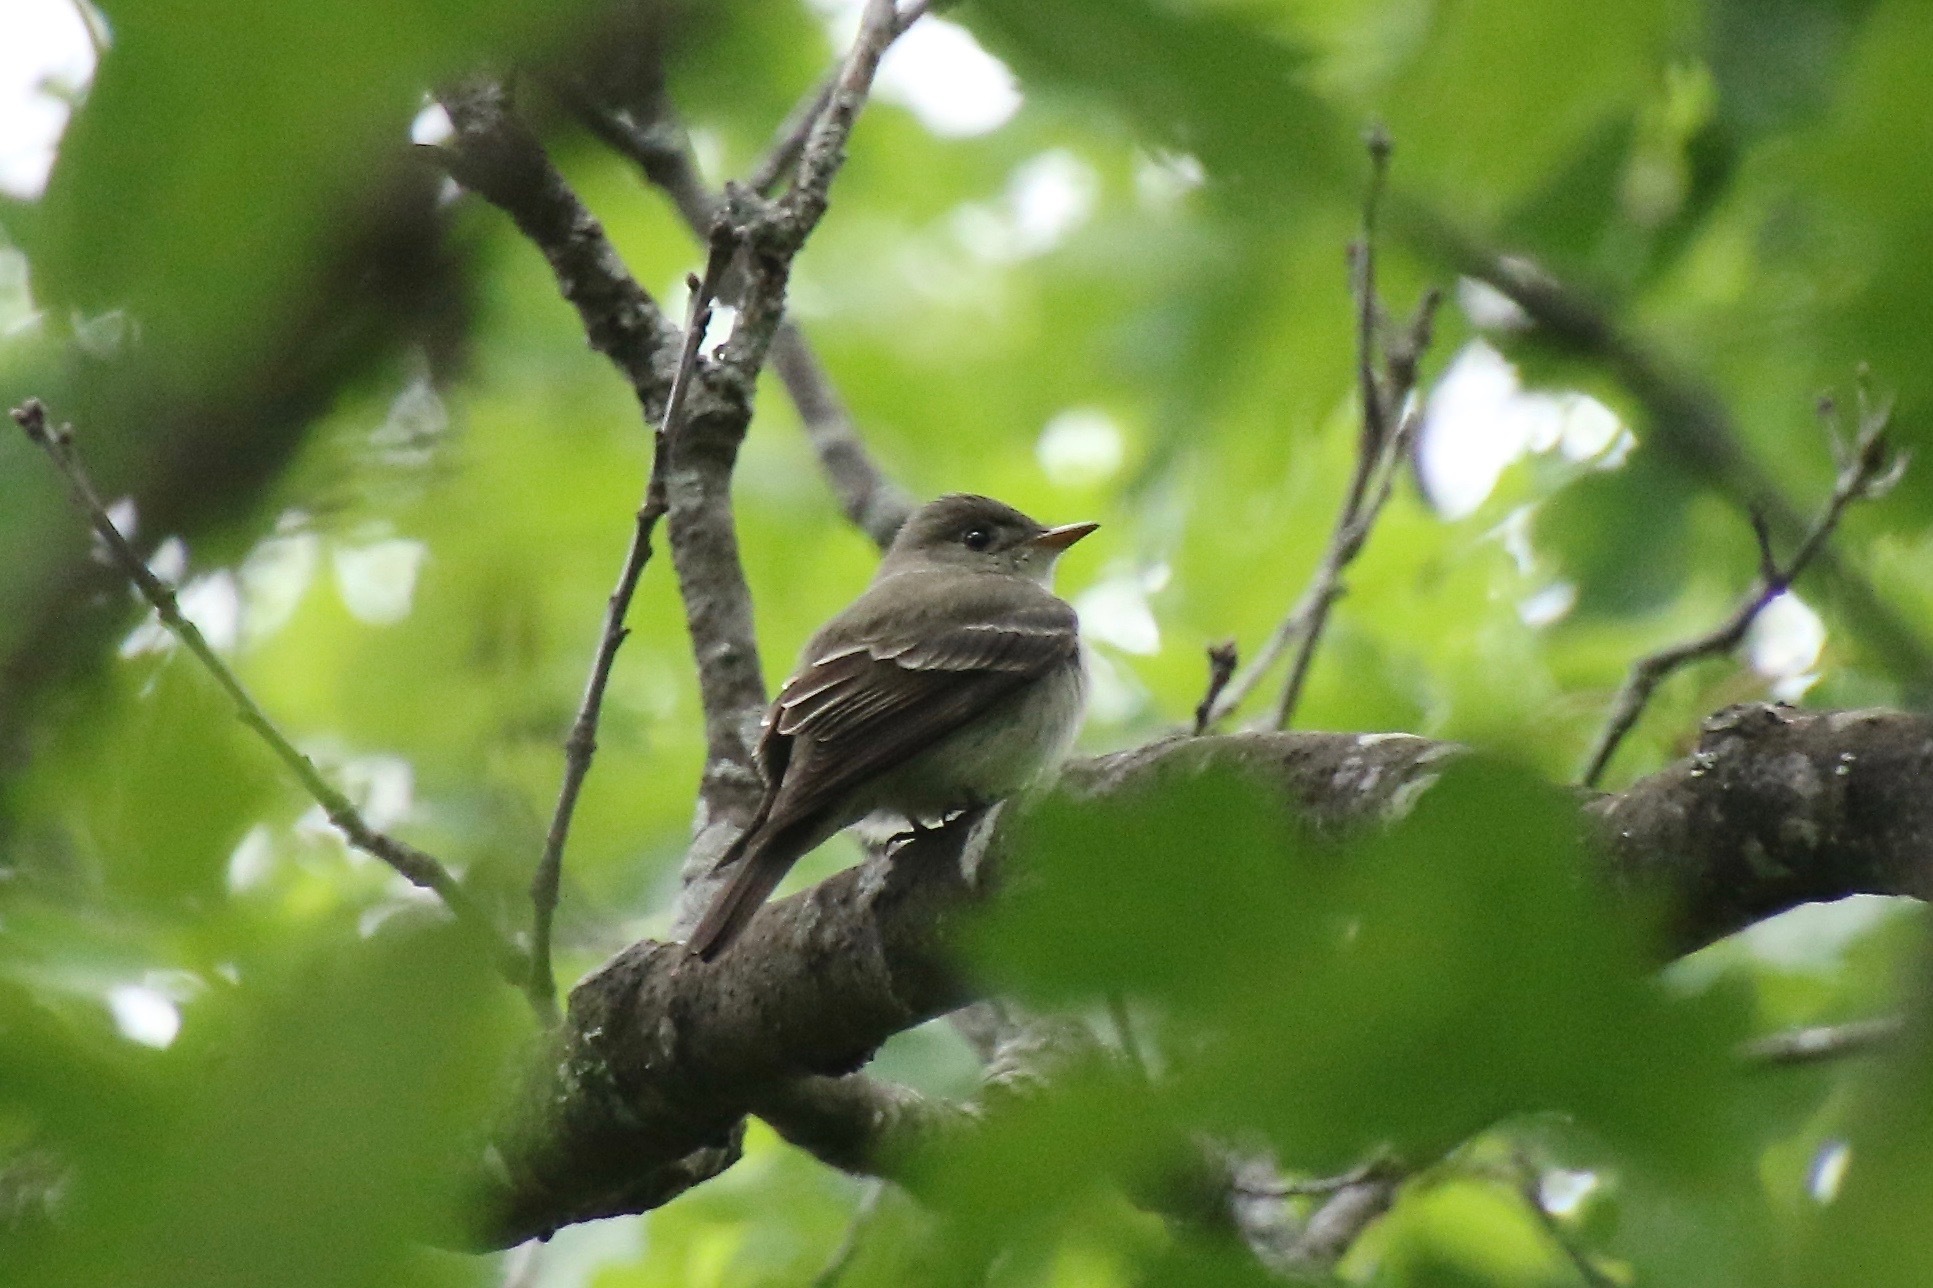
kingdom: Animalia
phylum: Chordata
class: Aves
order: Passeriformes
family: Tyrannidae
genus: Contopus
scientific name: Contopus virens
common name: Eastern wood-pewee
